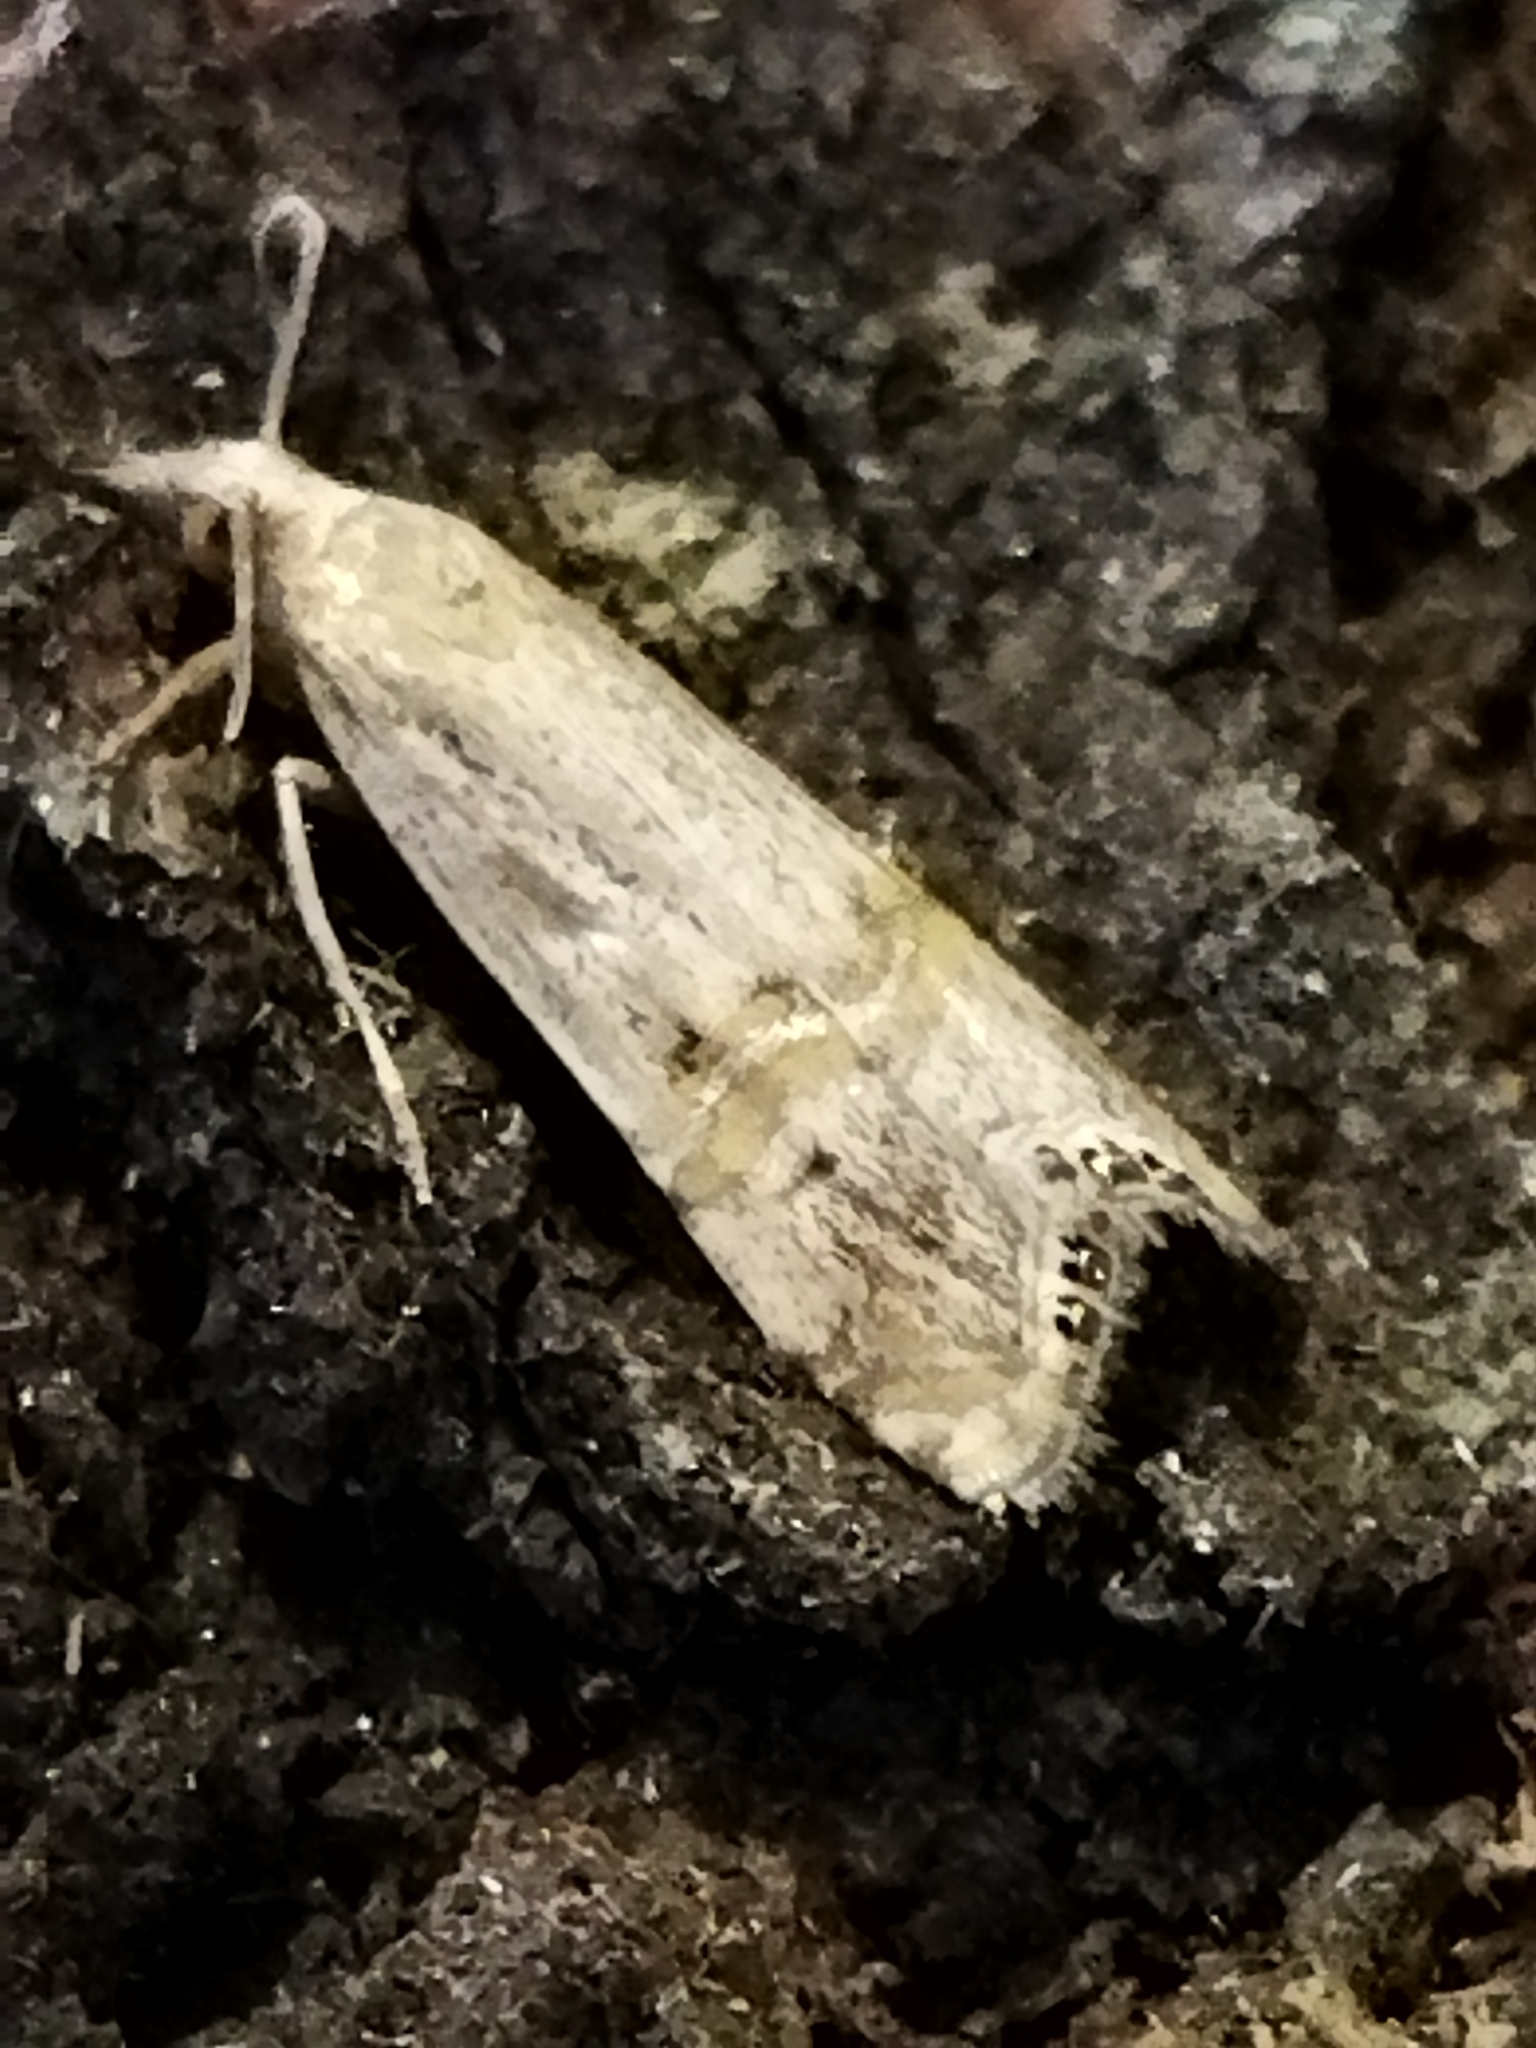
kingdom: Animalia
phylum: Arthropoda
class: Insecta
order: Lepidoptera
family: Crambidae
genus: Euchromius
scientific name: Euchromius ocellea
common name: Necklace veneer moth
